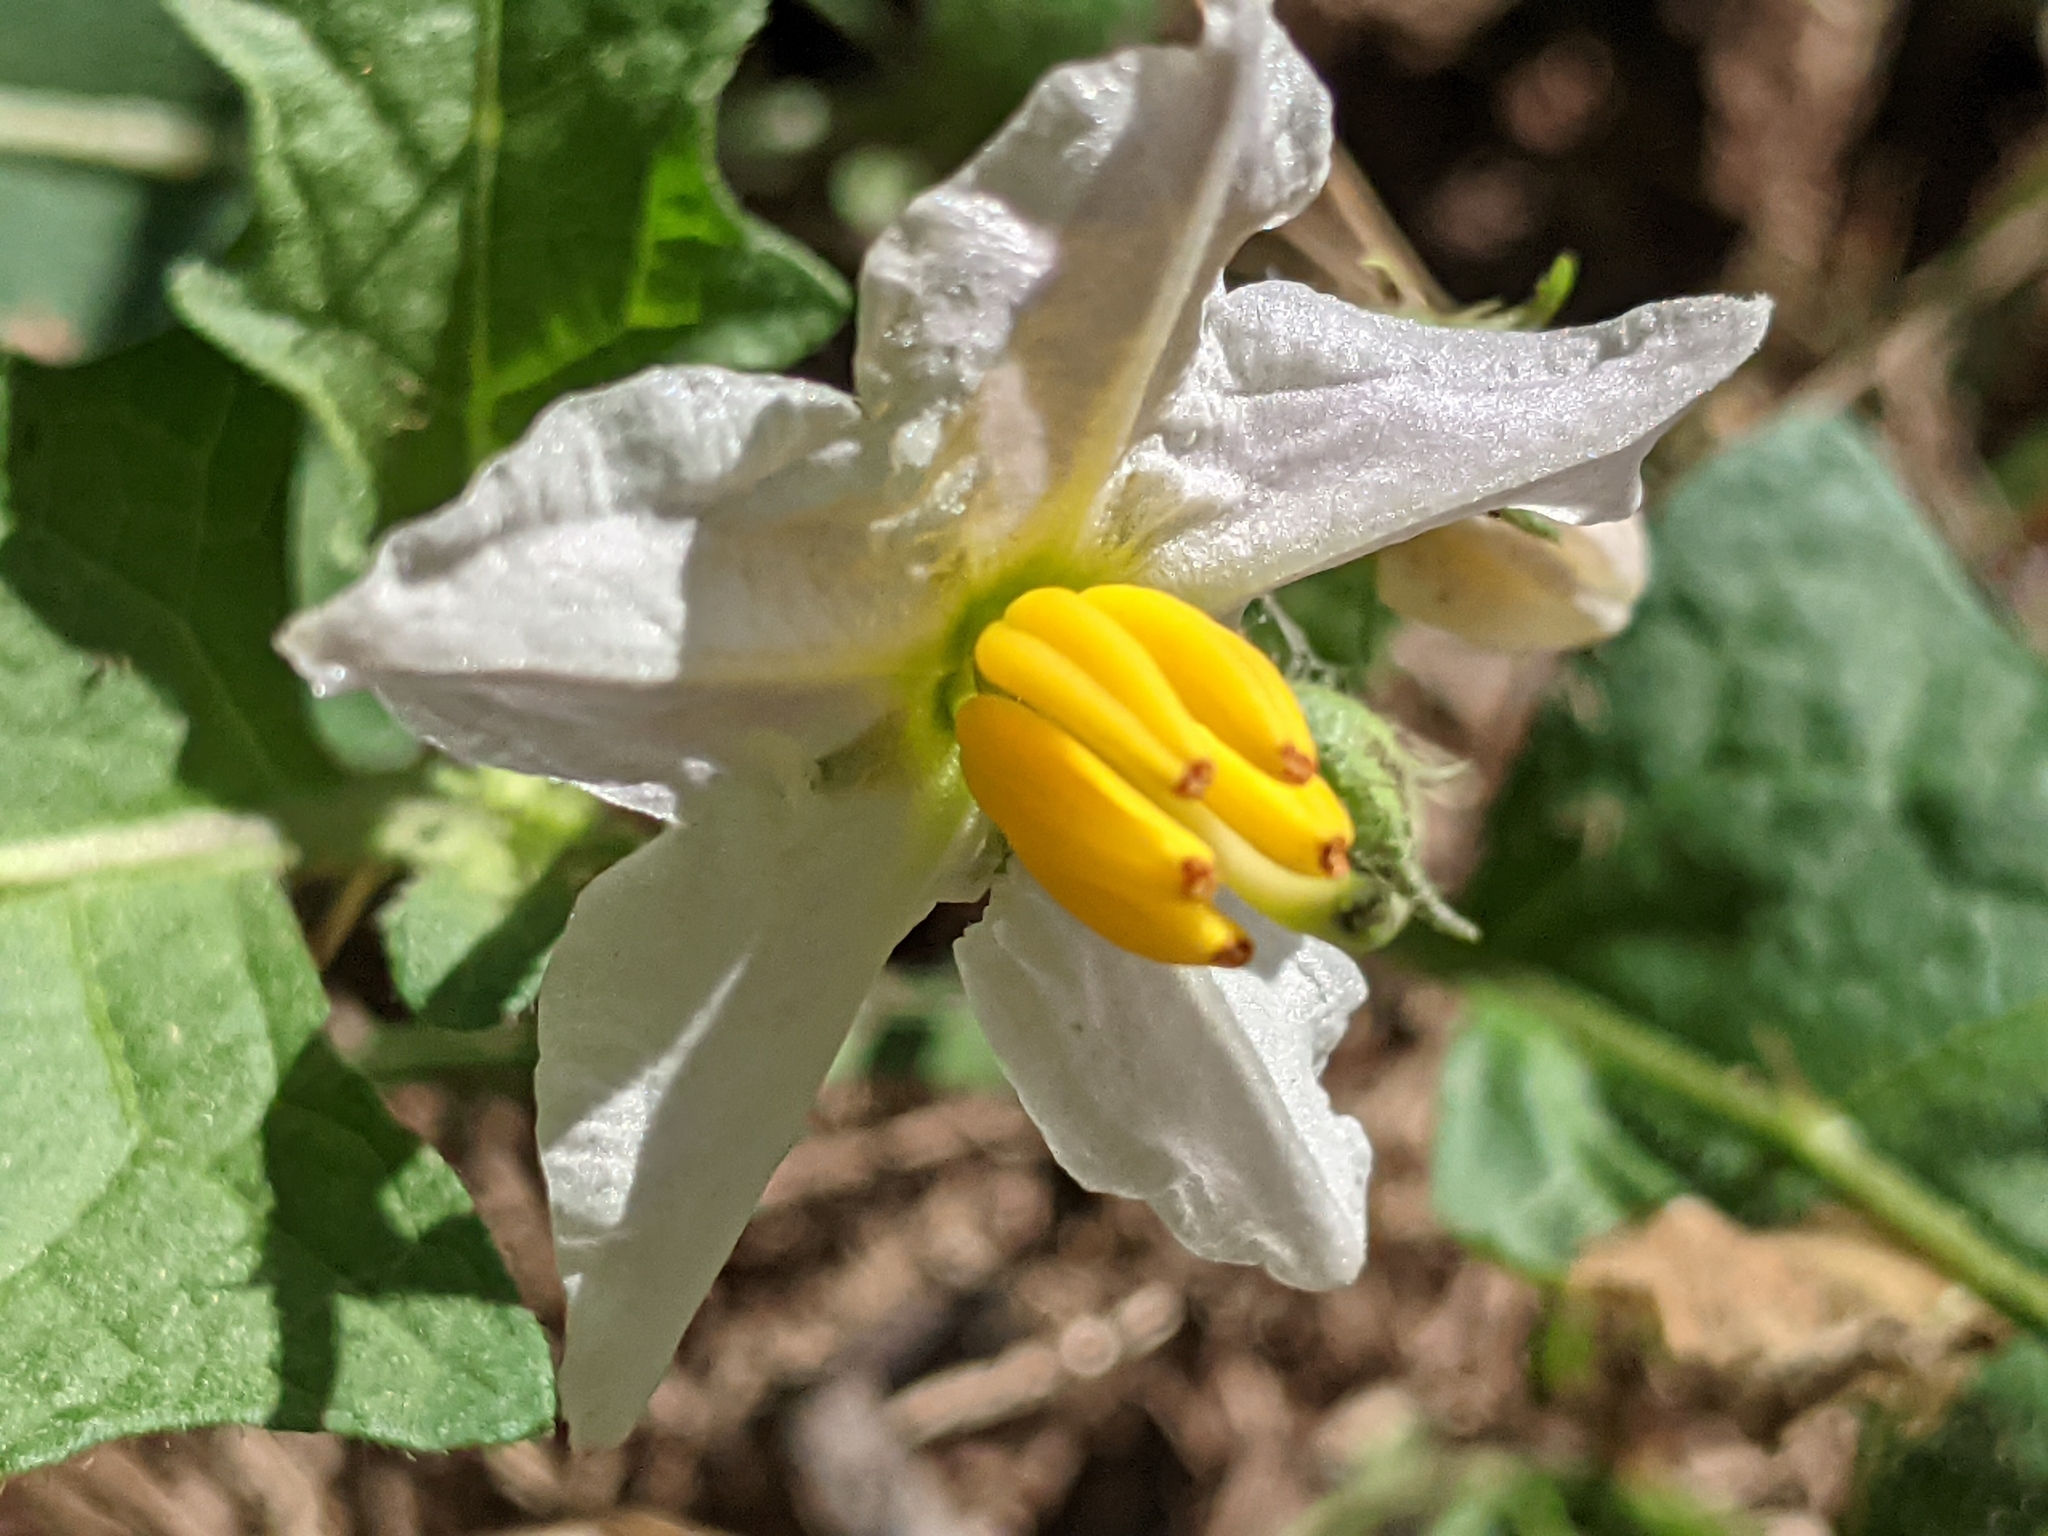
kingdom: Plantae
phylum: Tracheophyta
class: Magnoliopsida
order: Solanales
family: Solanaceae
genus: Solanum
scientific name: Solanum carolinense
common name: Horse-nettle
